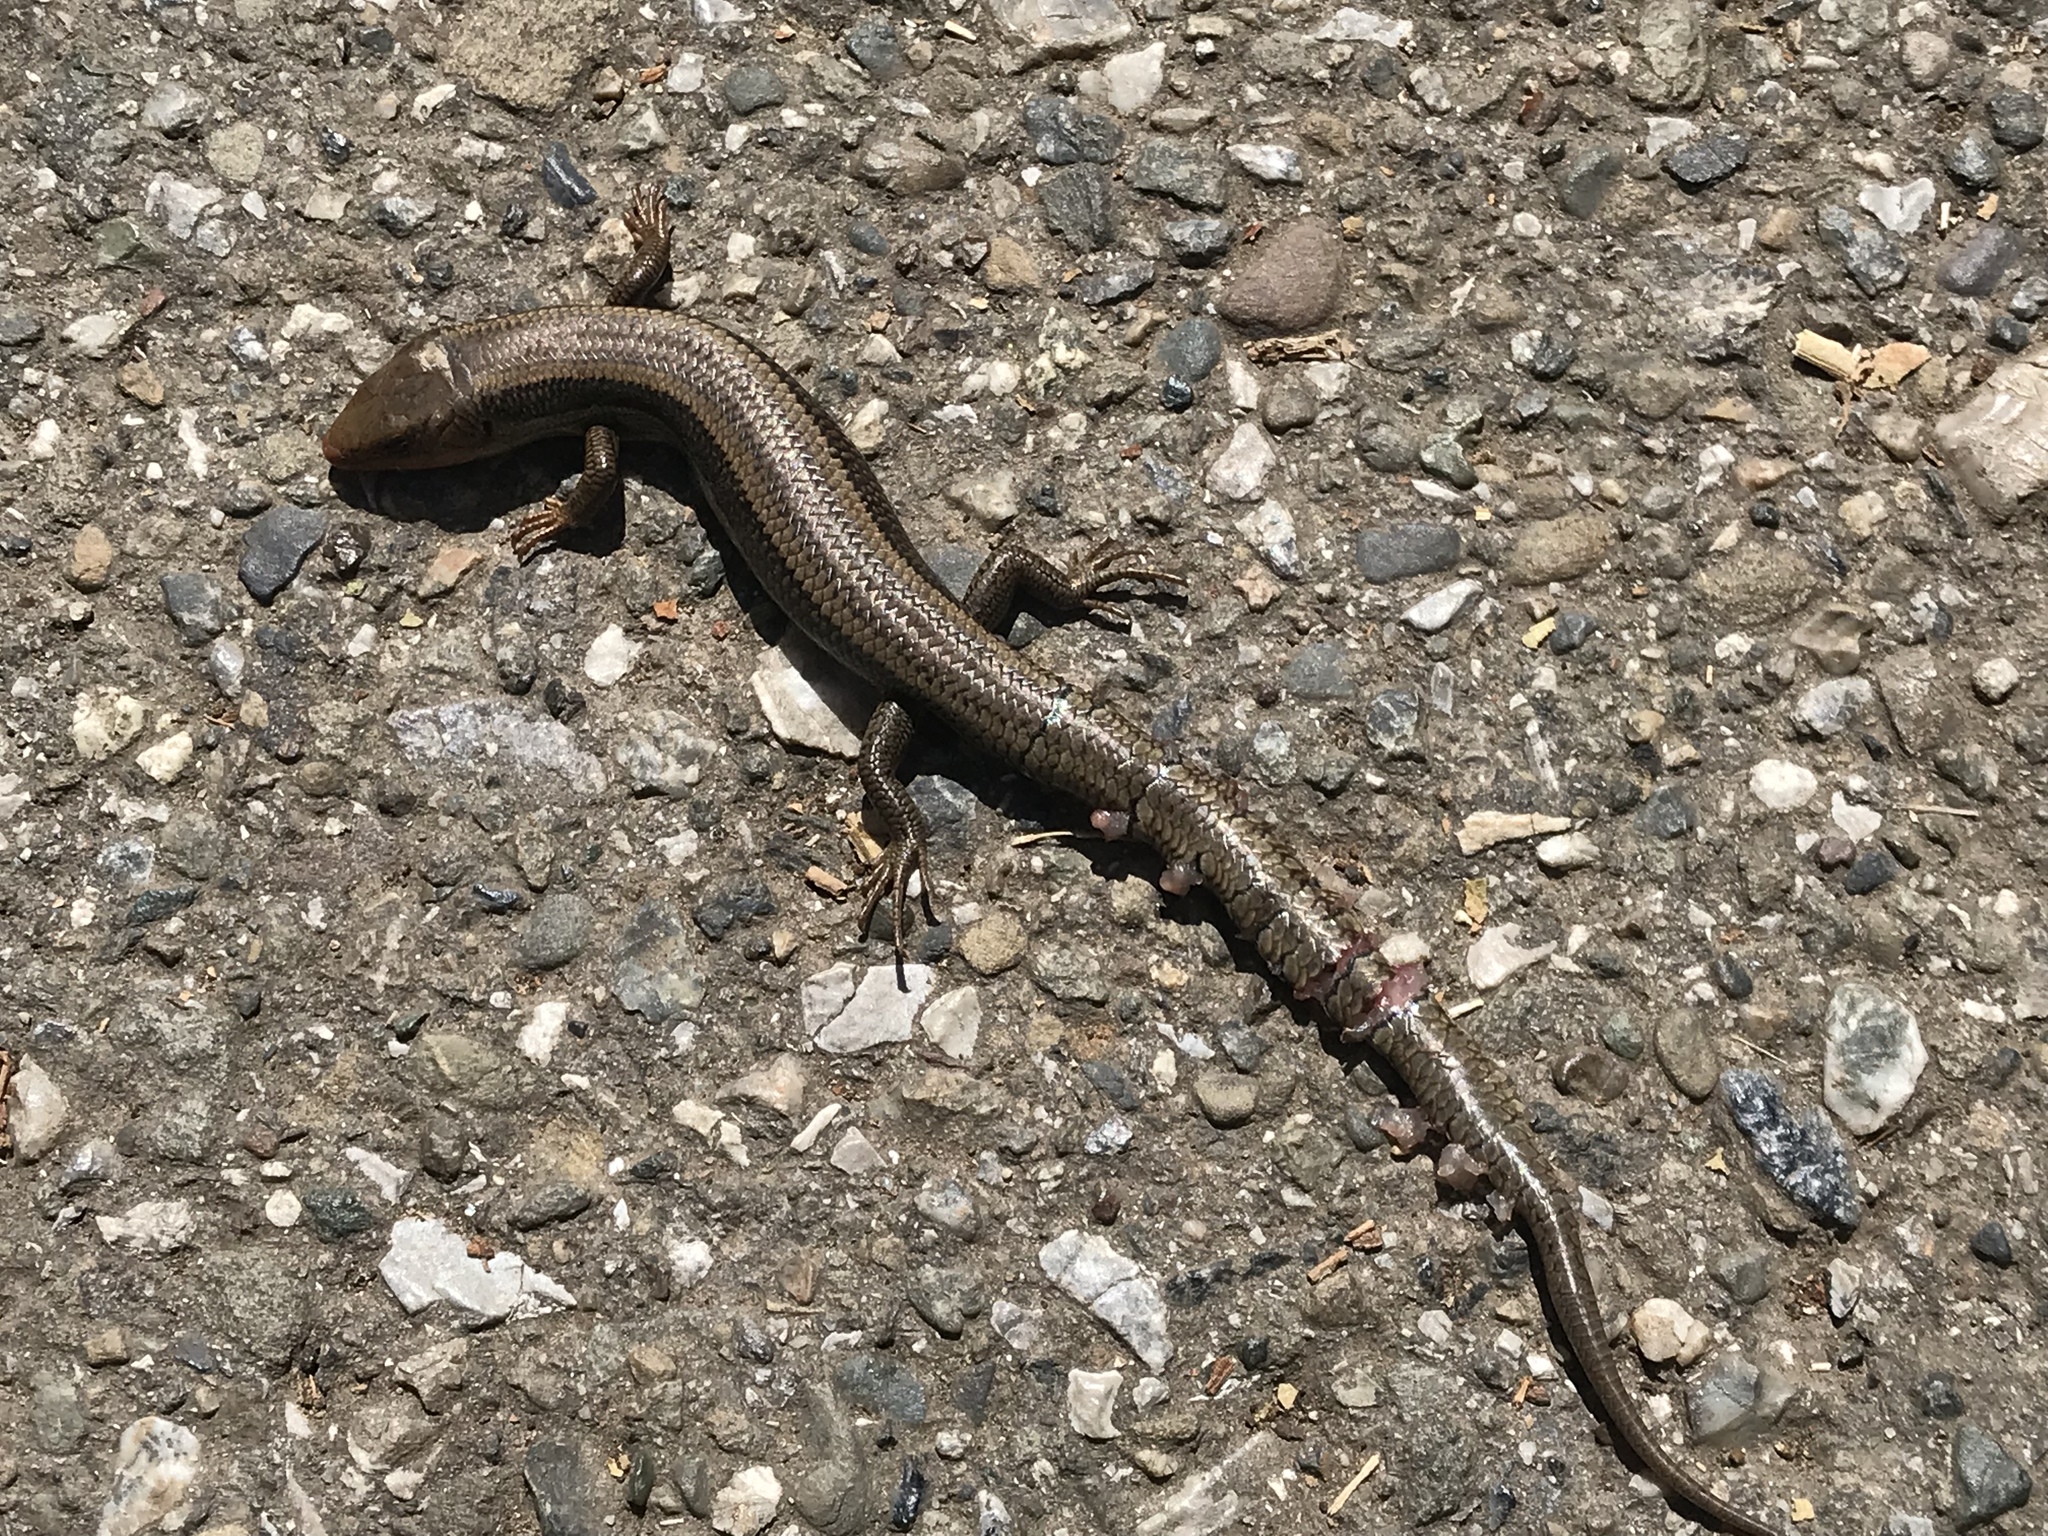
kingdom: Animalia
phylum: Chordata
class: Squamata
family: Scincidae
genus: Plestiodon
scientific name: Plestiodon skiltonianus
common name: Coronado island skink [interparietalis]
